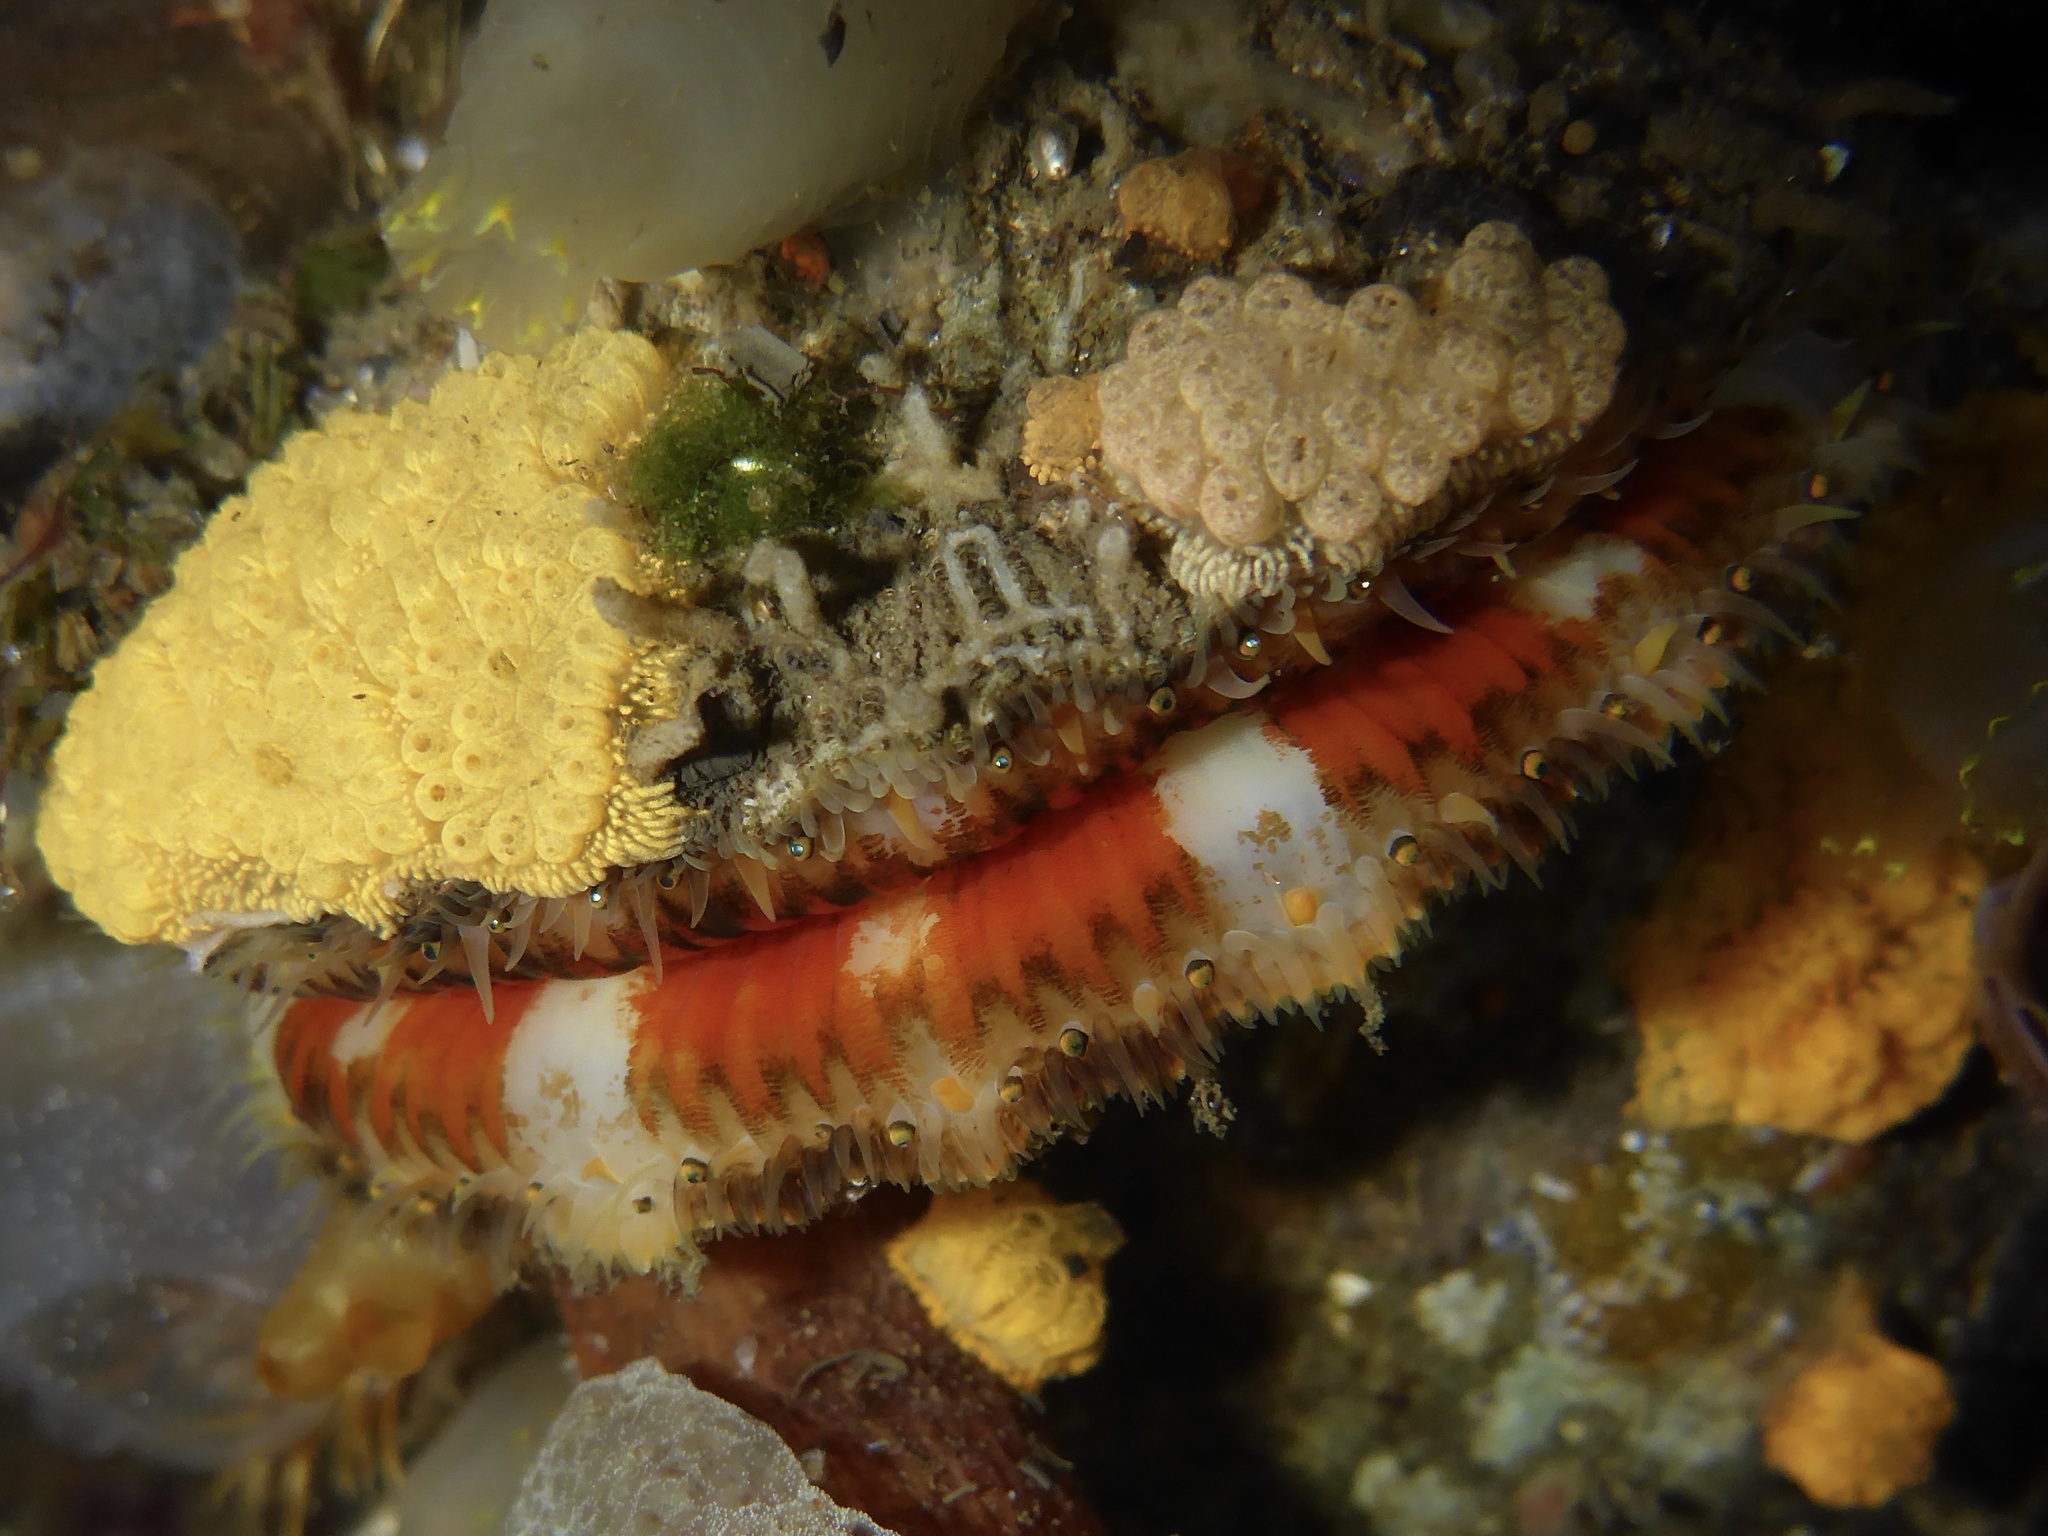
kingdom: Animalia
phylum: Mollusca
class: Bivalvia
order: Pectinida
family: Pectinidae
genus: Chlamys
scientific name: Chlamys hastata
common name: Spear scallop
